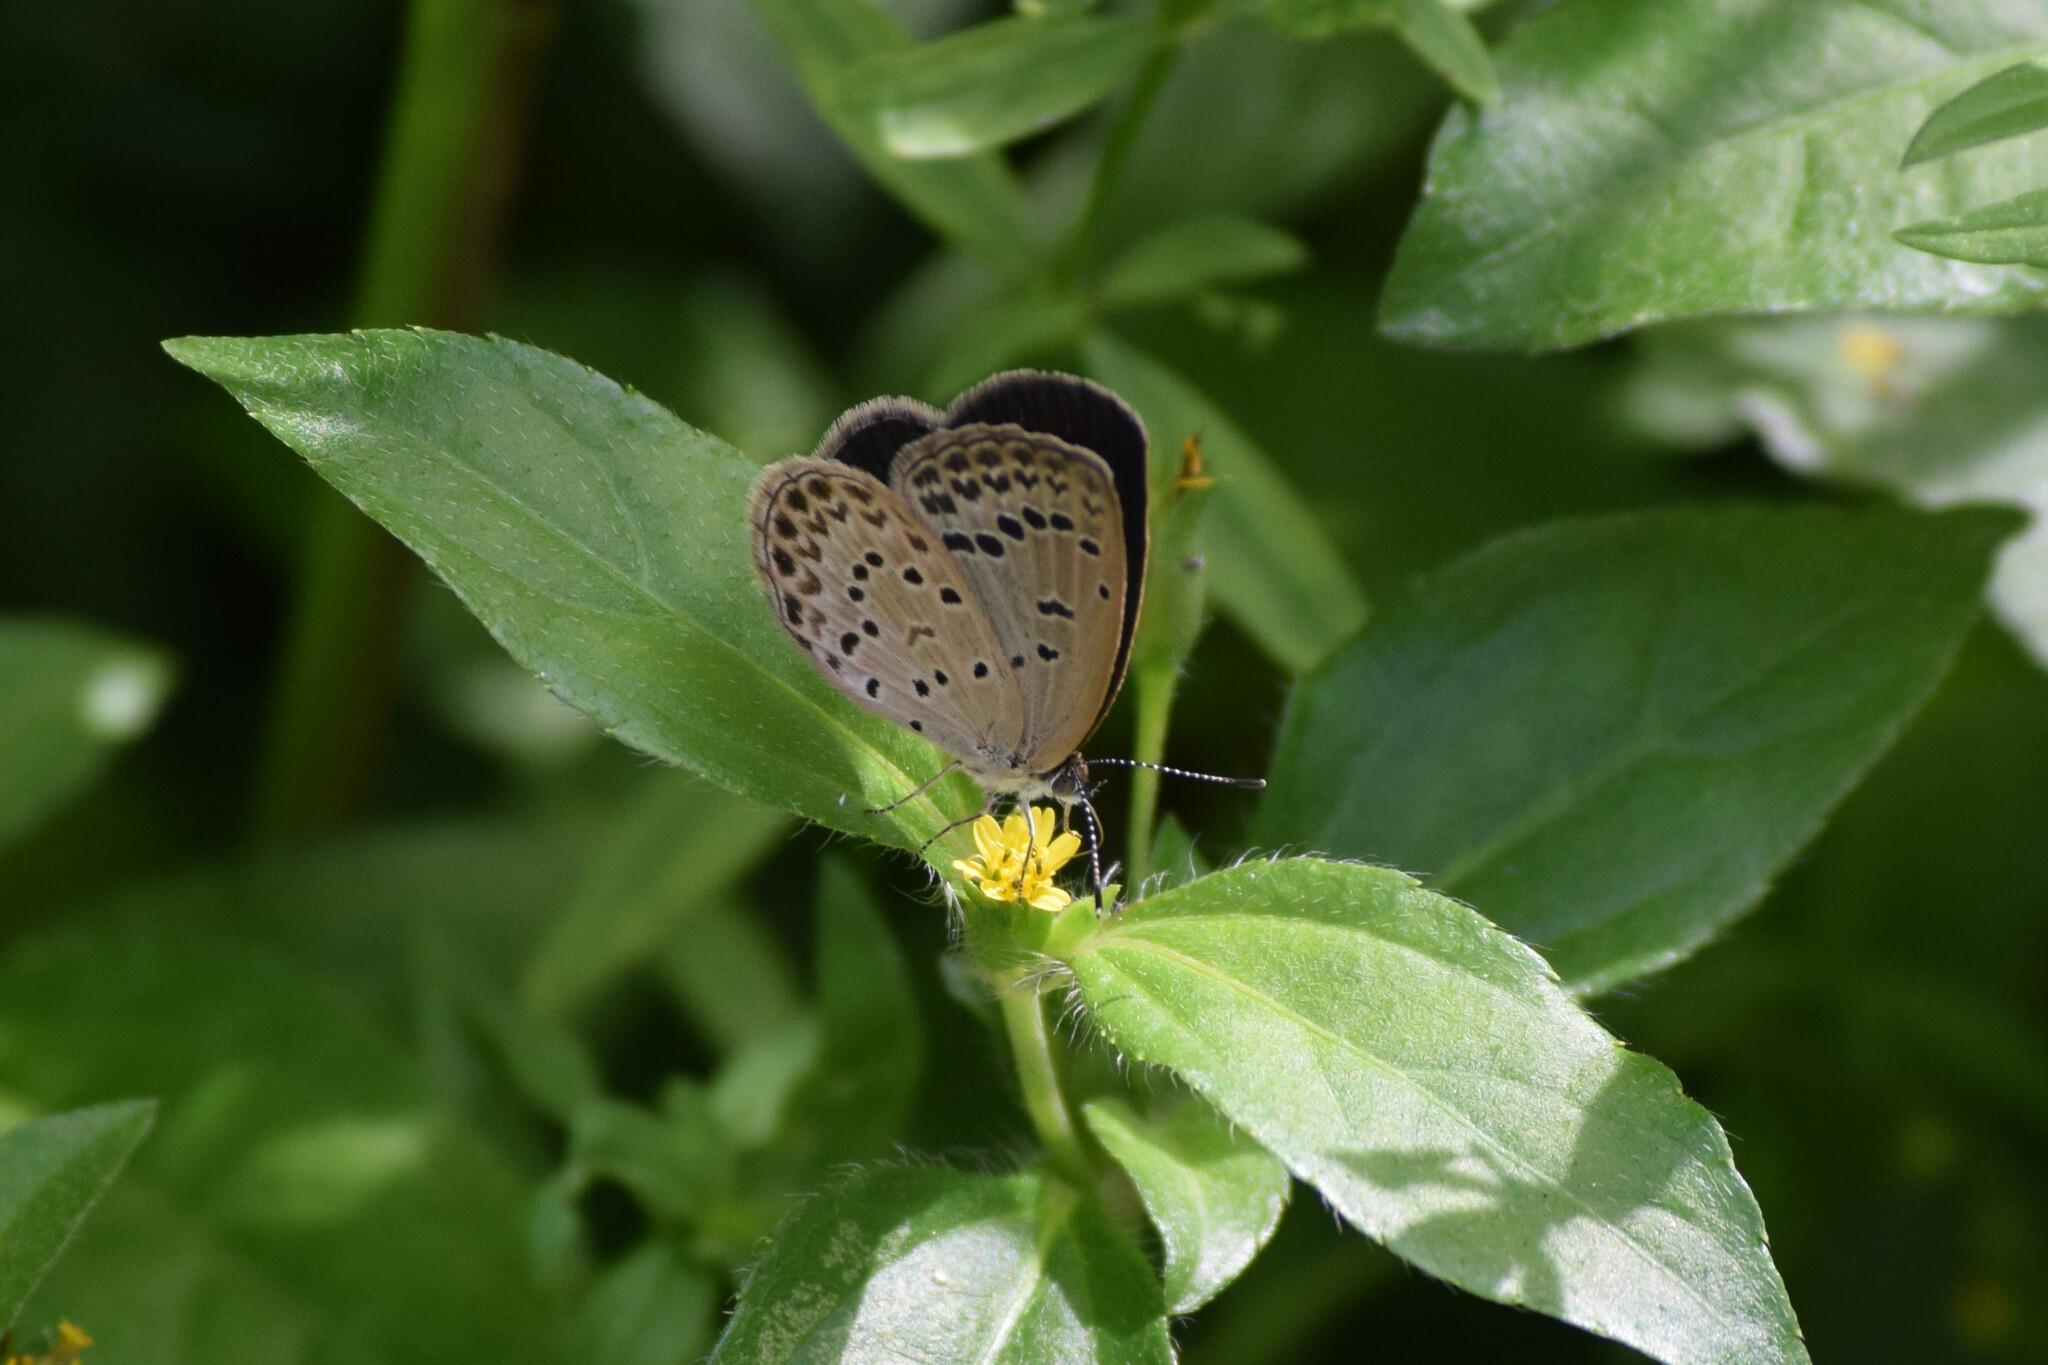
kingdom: Animalia
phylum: Arthropoda
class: Insecta
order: Lepidoptera
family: Lycaenidae
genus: Pseudozizeeria
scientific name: Pseudozizeeria maha
